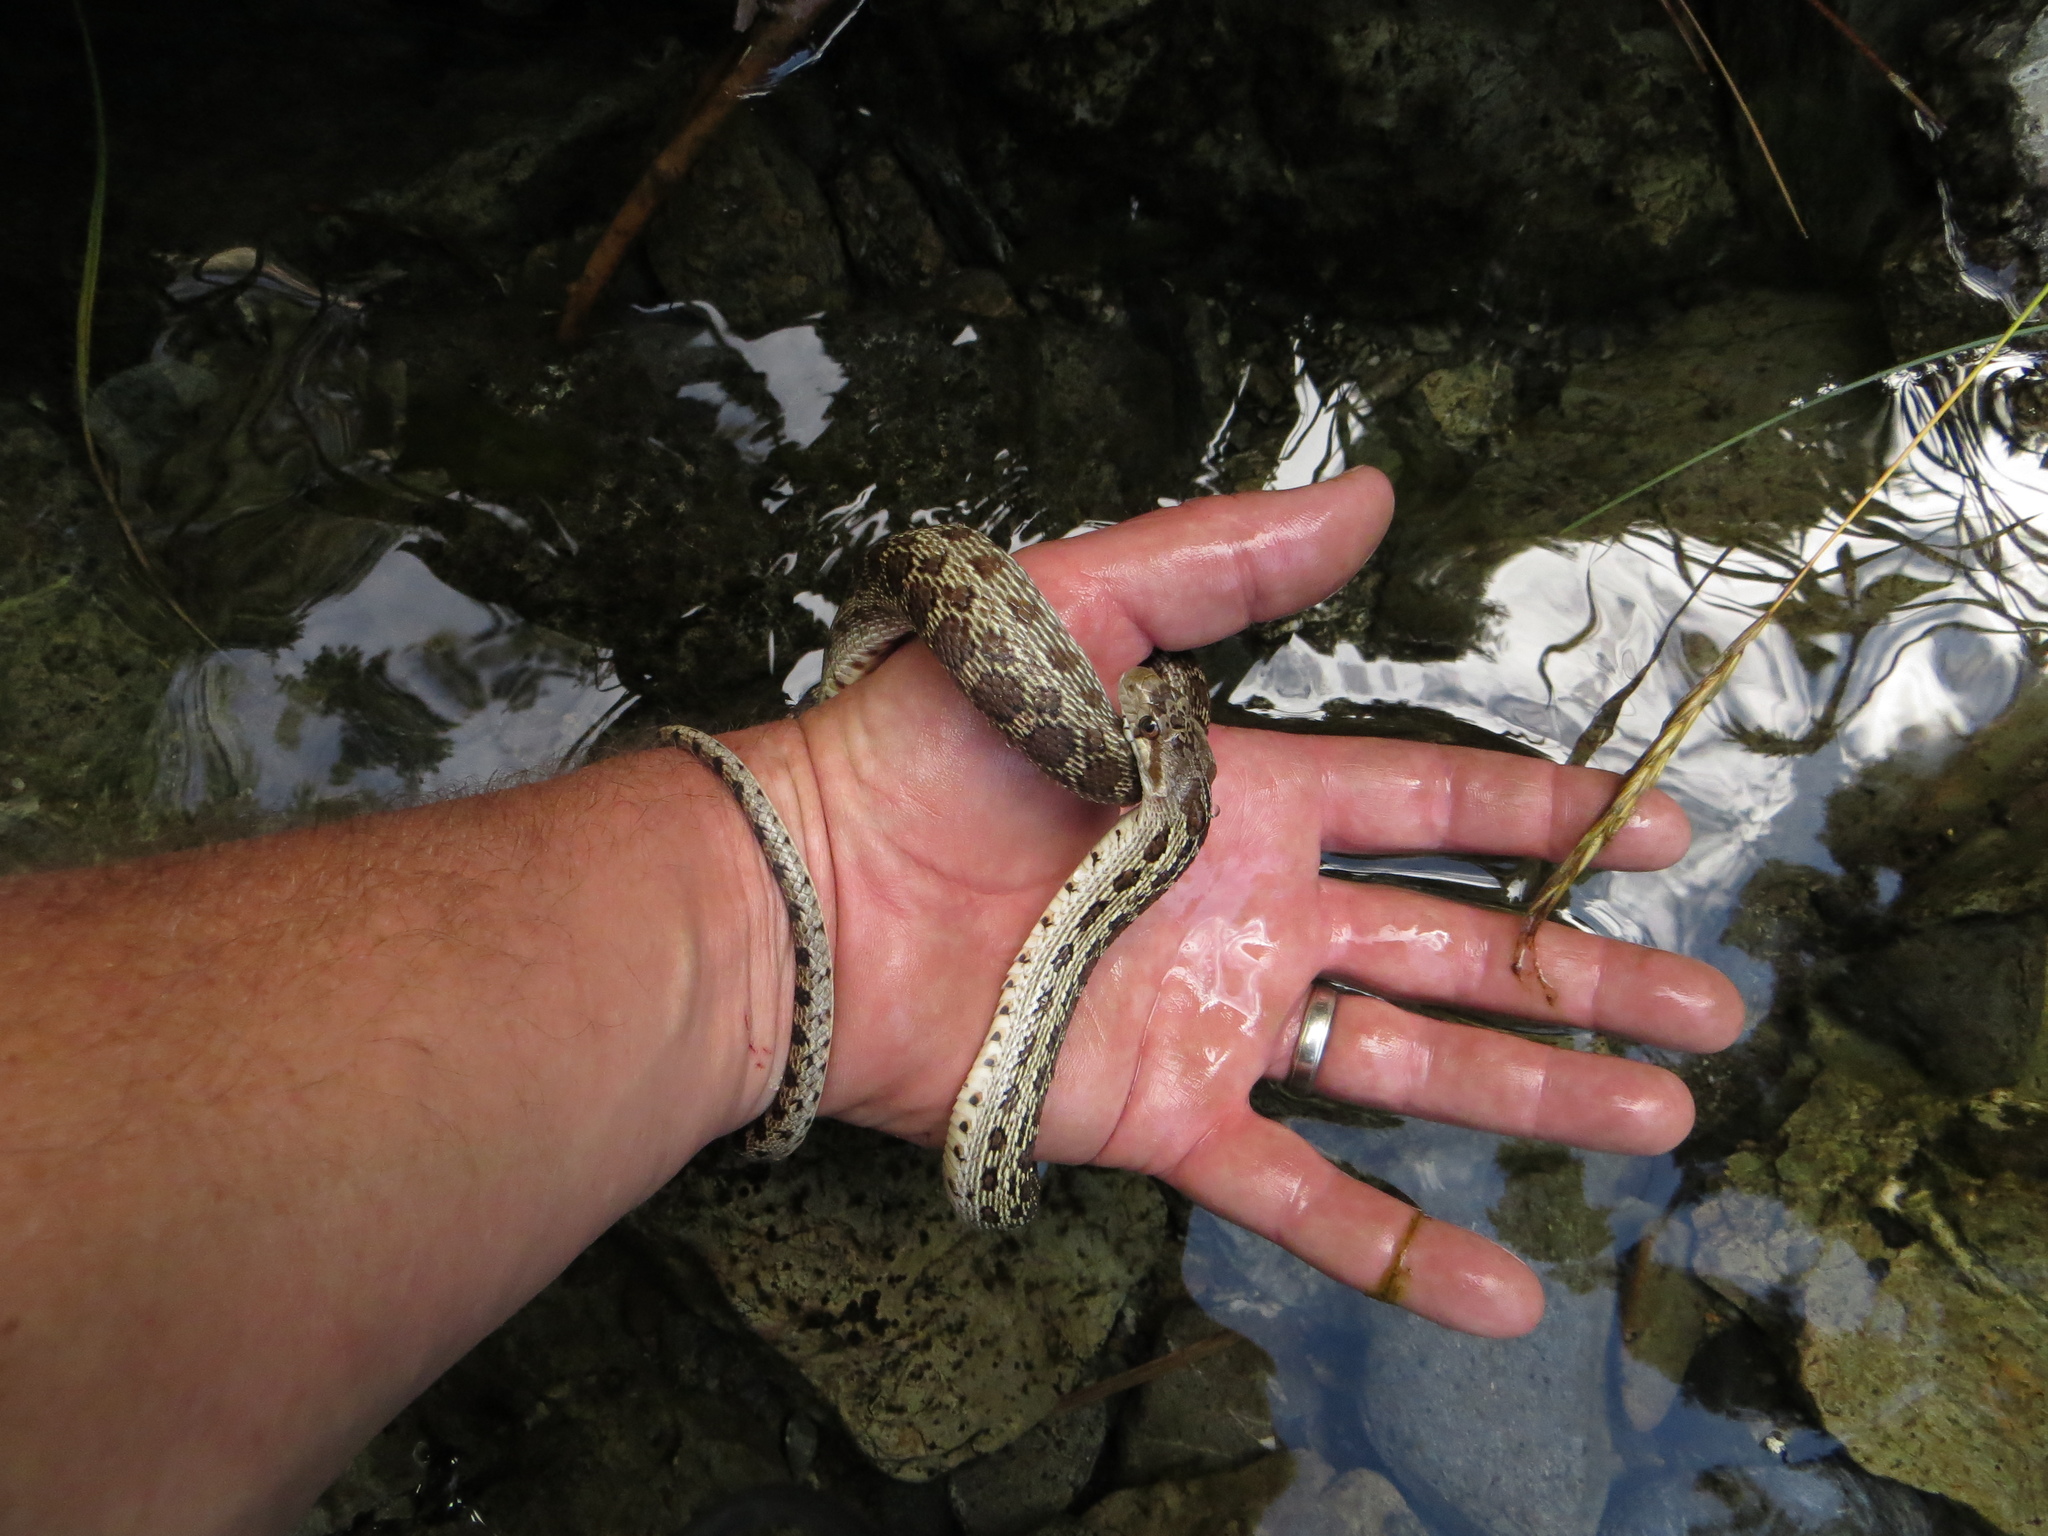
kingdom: Animalia
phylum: Chordata
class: Squamata
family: Colubridae
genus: Pituophis
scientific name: Pituophis catenifer
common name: Gopher snake
